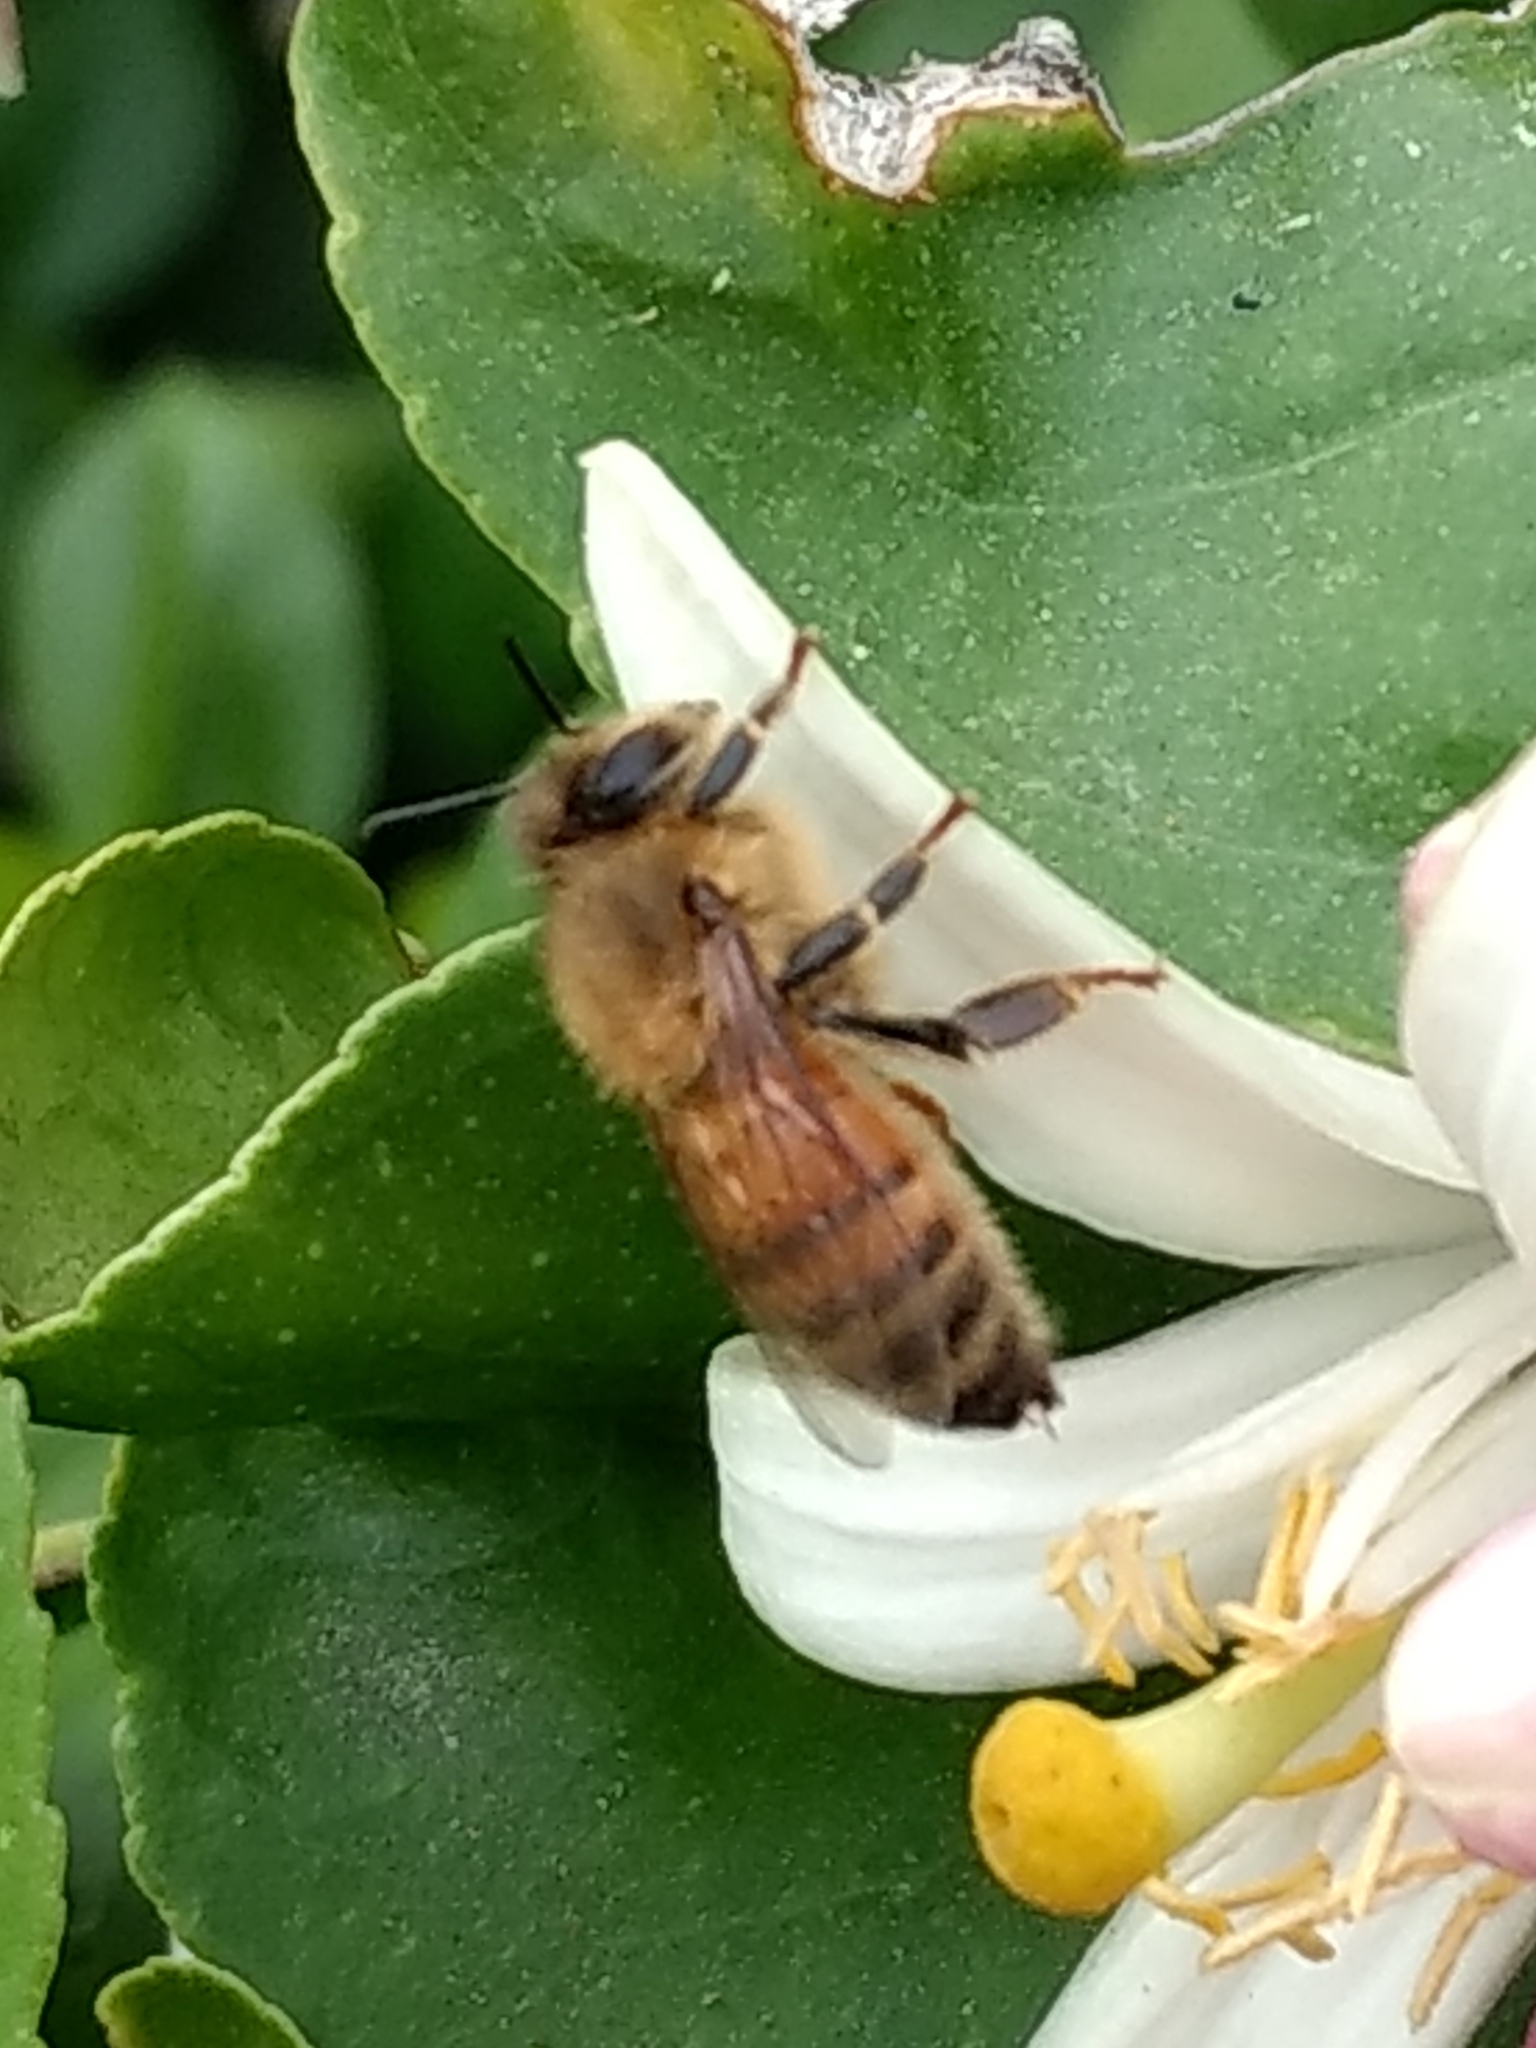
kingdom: Animalia
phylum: Arthropoda
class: Insecta
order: Hymenoptera
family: Apidae
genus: Apis
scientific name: Apis mellifera
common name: Honey bee
